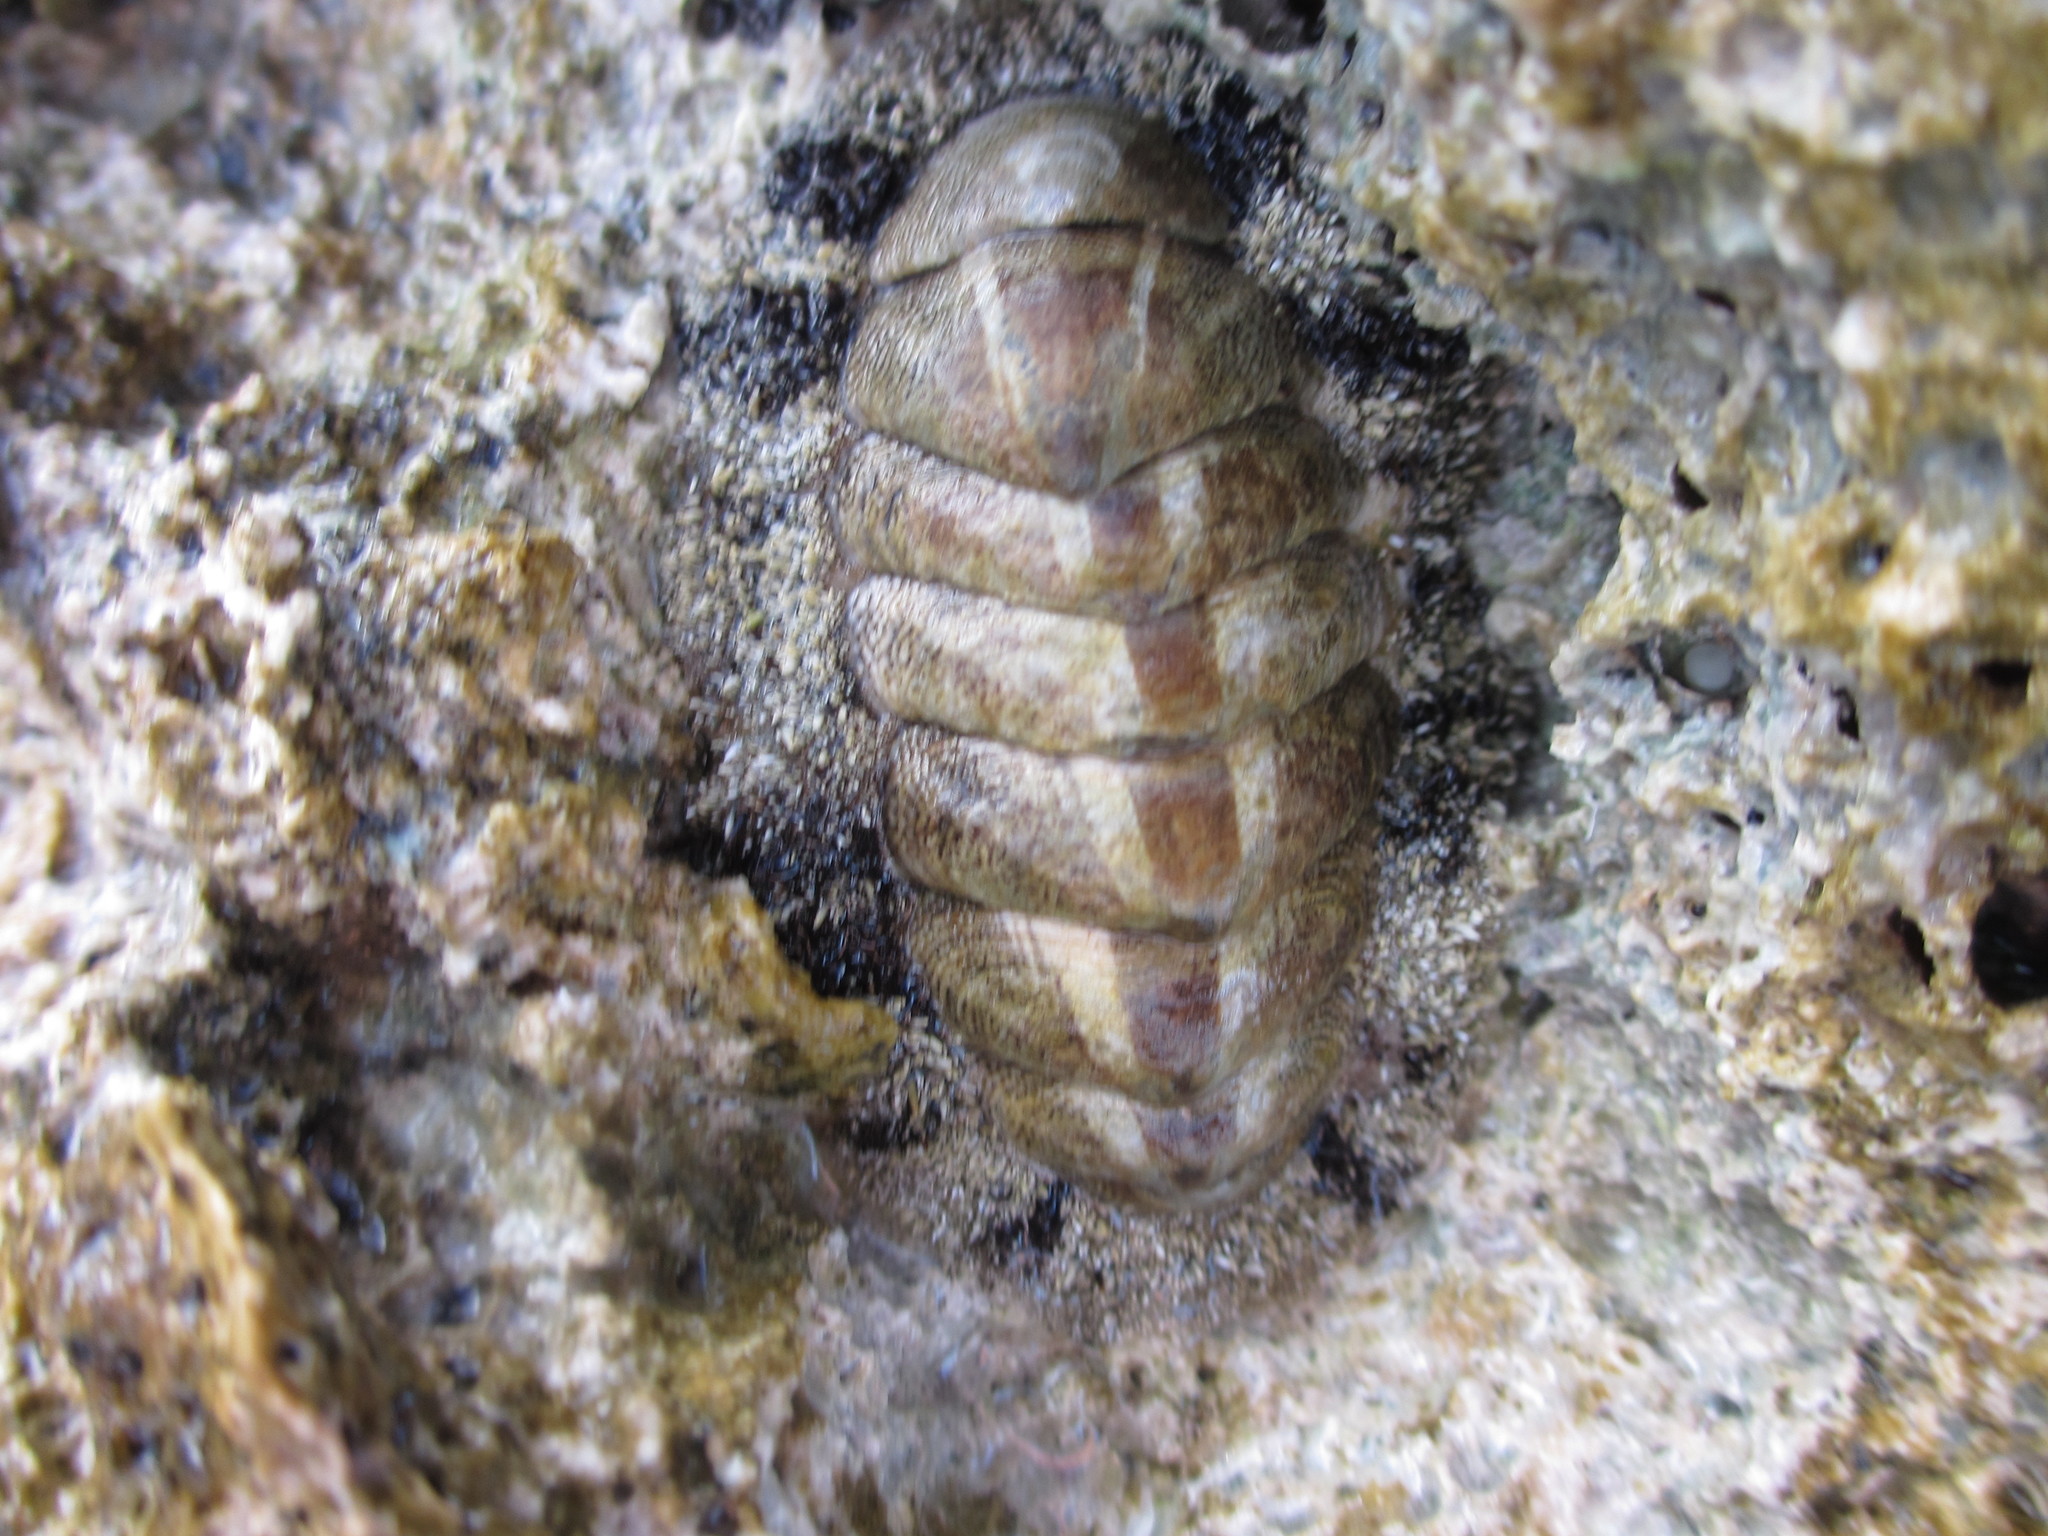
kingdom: Animalia
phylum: Mollusca
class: Polyplacophora
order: Chitonida
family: Chitonidae
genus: Acanthopleura
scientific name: Acanthopleura granulata
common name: West indian fuzzy chiton
